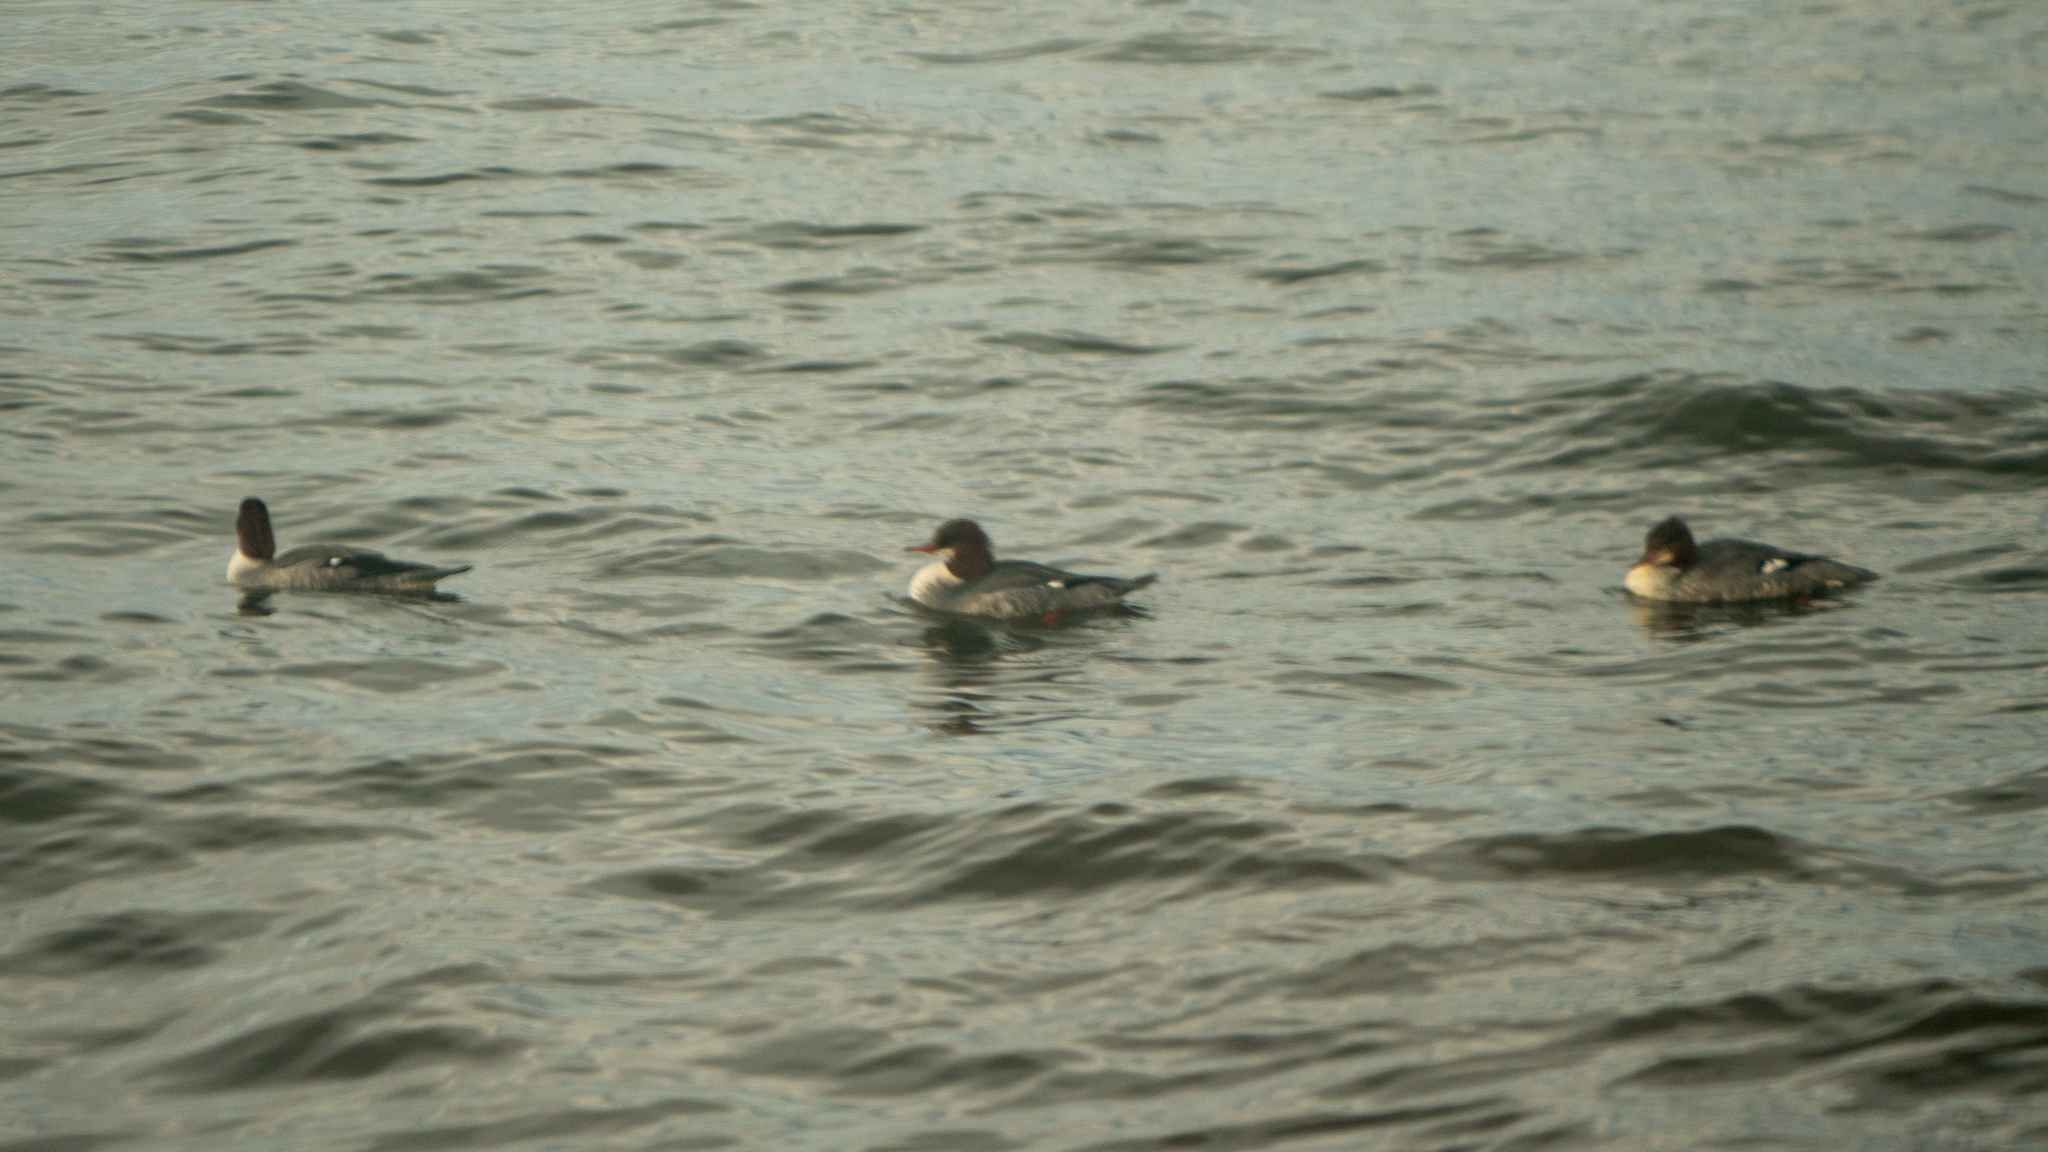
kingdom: Animalia
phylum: Chordata
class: Aves
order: Anseriformes
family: Anatidae
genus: Mergus
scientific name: Mergus merganser
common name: Common merganser
